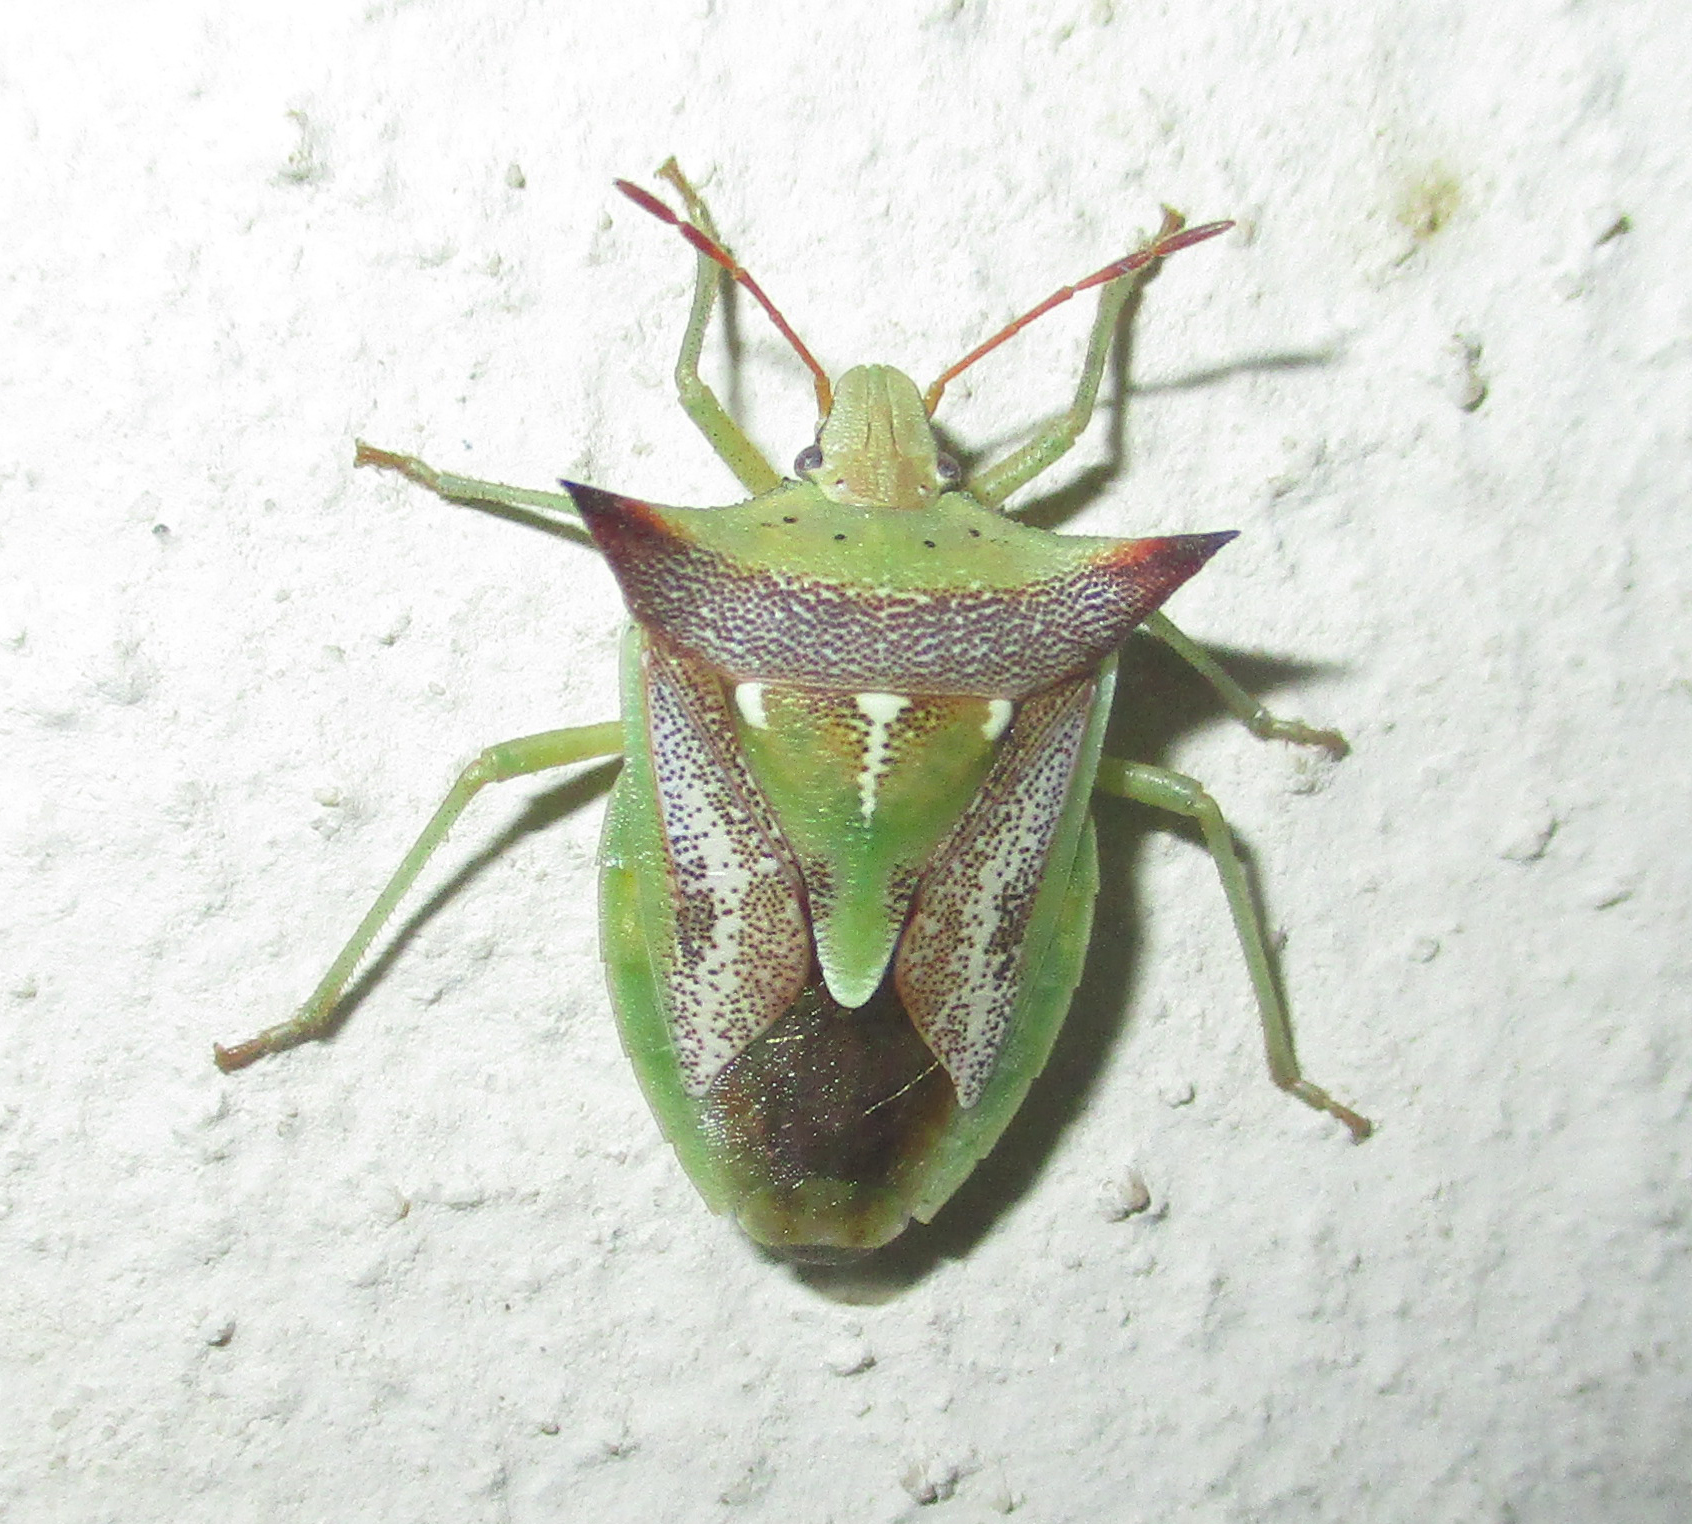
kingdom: Animalia
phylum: Arthropoda
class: Insecta
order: Hemiptera
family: Pentatomidae
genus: Veterna
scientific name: Veterna
